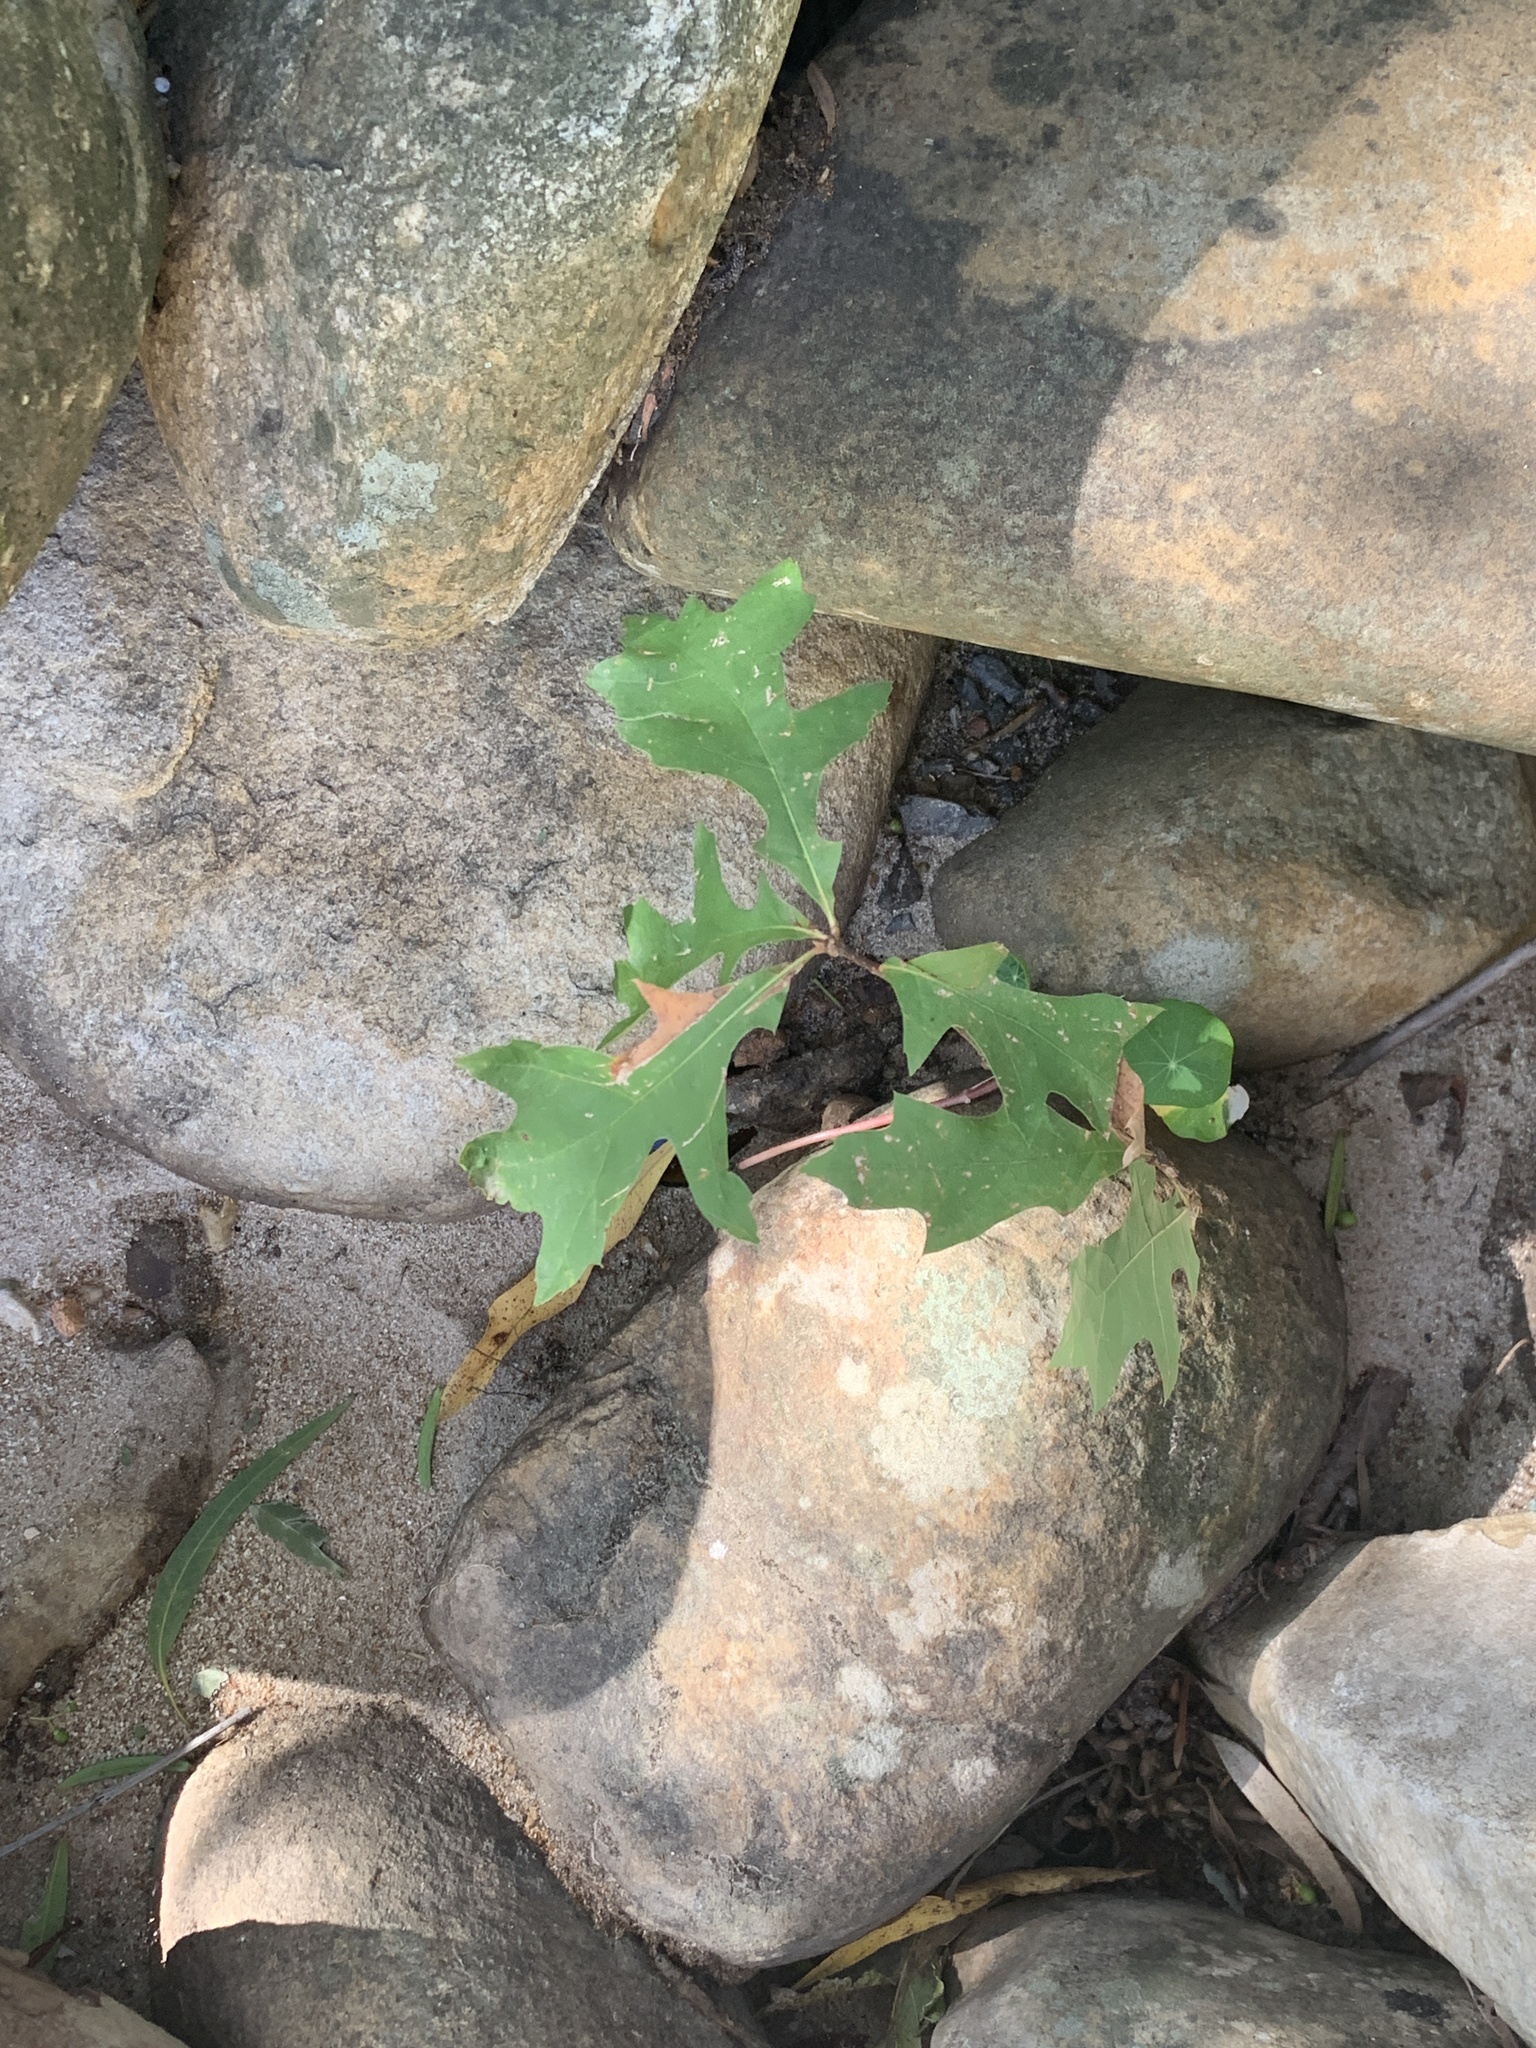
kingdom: Plantae
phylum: Tracheophyta
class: Magnoliopsida
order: Fagales
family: Fagaceae
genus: Quercus
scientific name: Quercus palustris
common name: Pin oak
